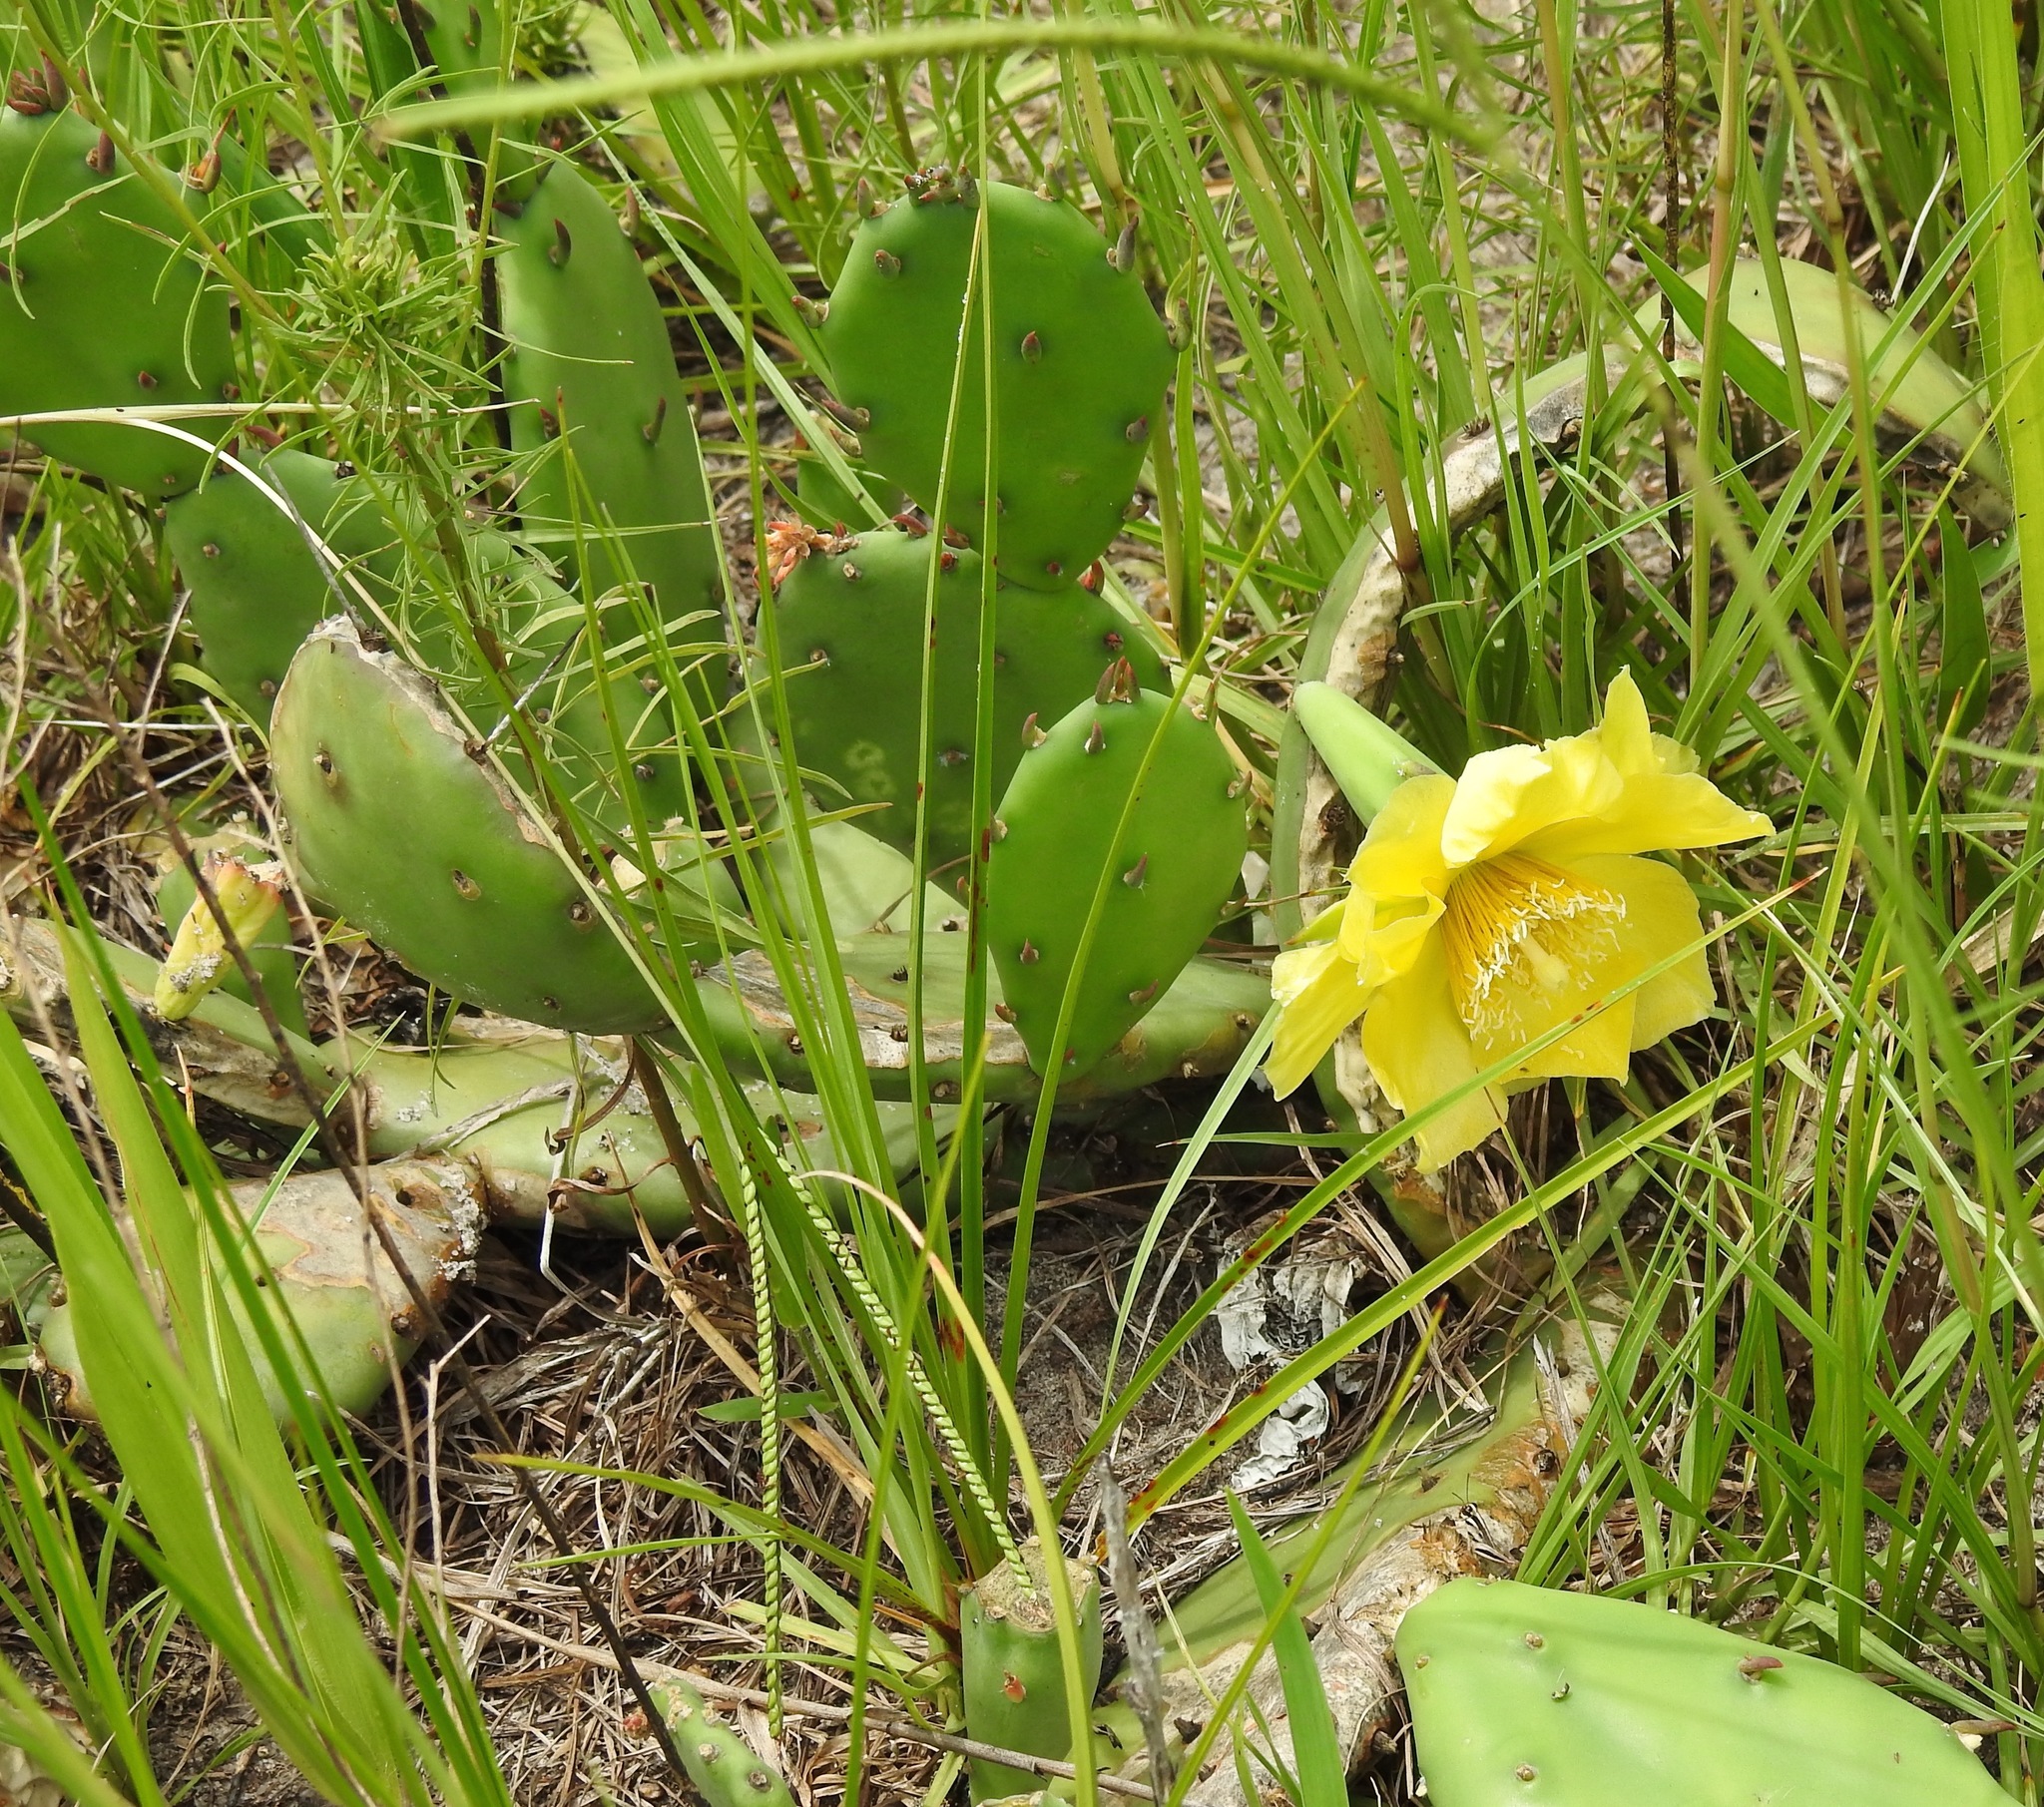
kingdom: Plantae
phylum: Tracheophyta
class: Magnoliopsida
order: Caryophyllales
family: Cactaceae
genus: Opuntia
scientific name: Opuntia humifusa
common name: Eastern prickly-pear
